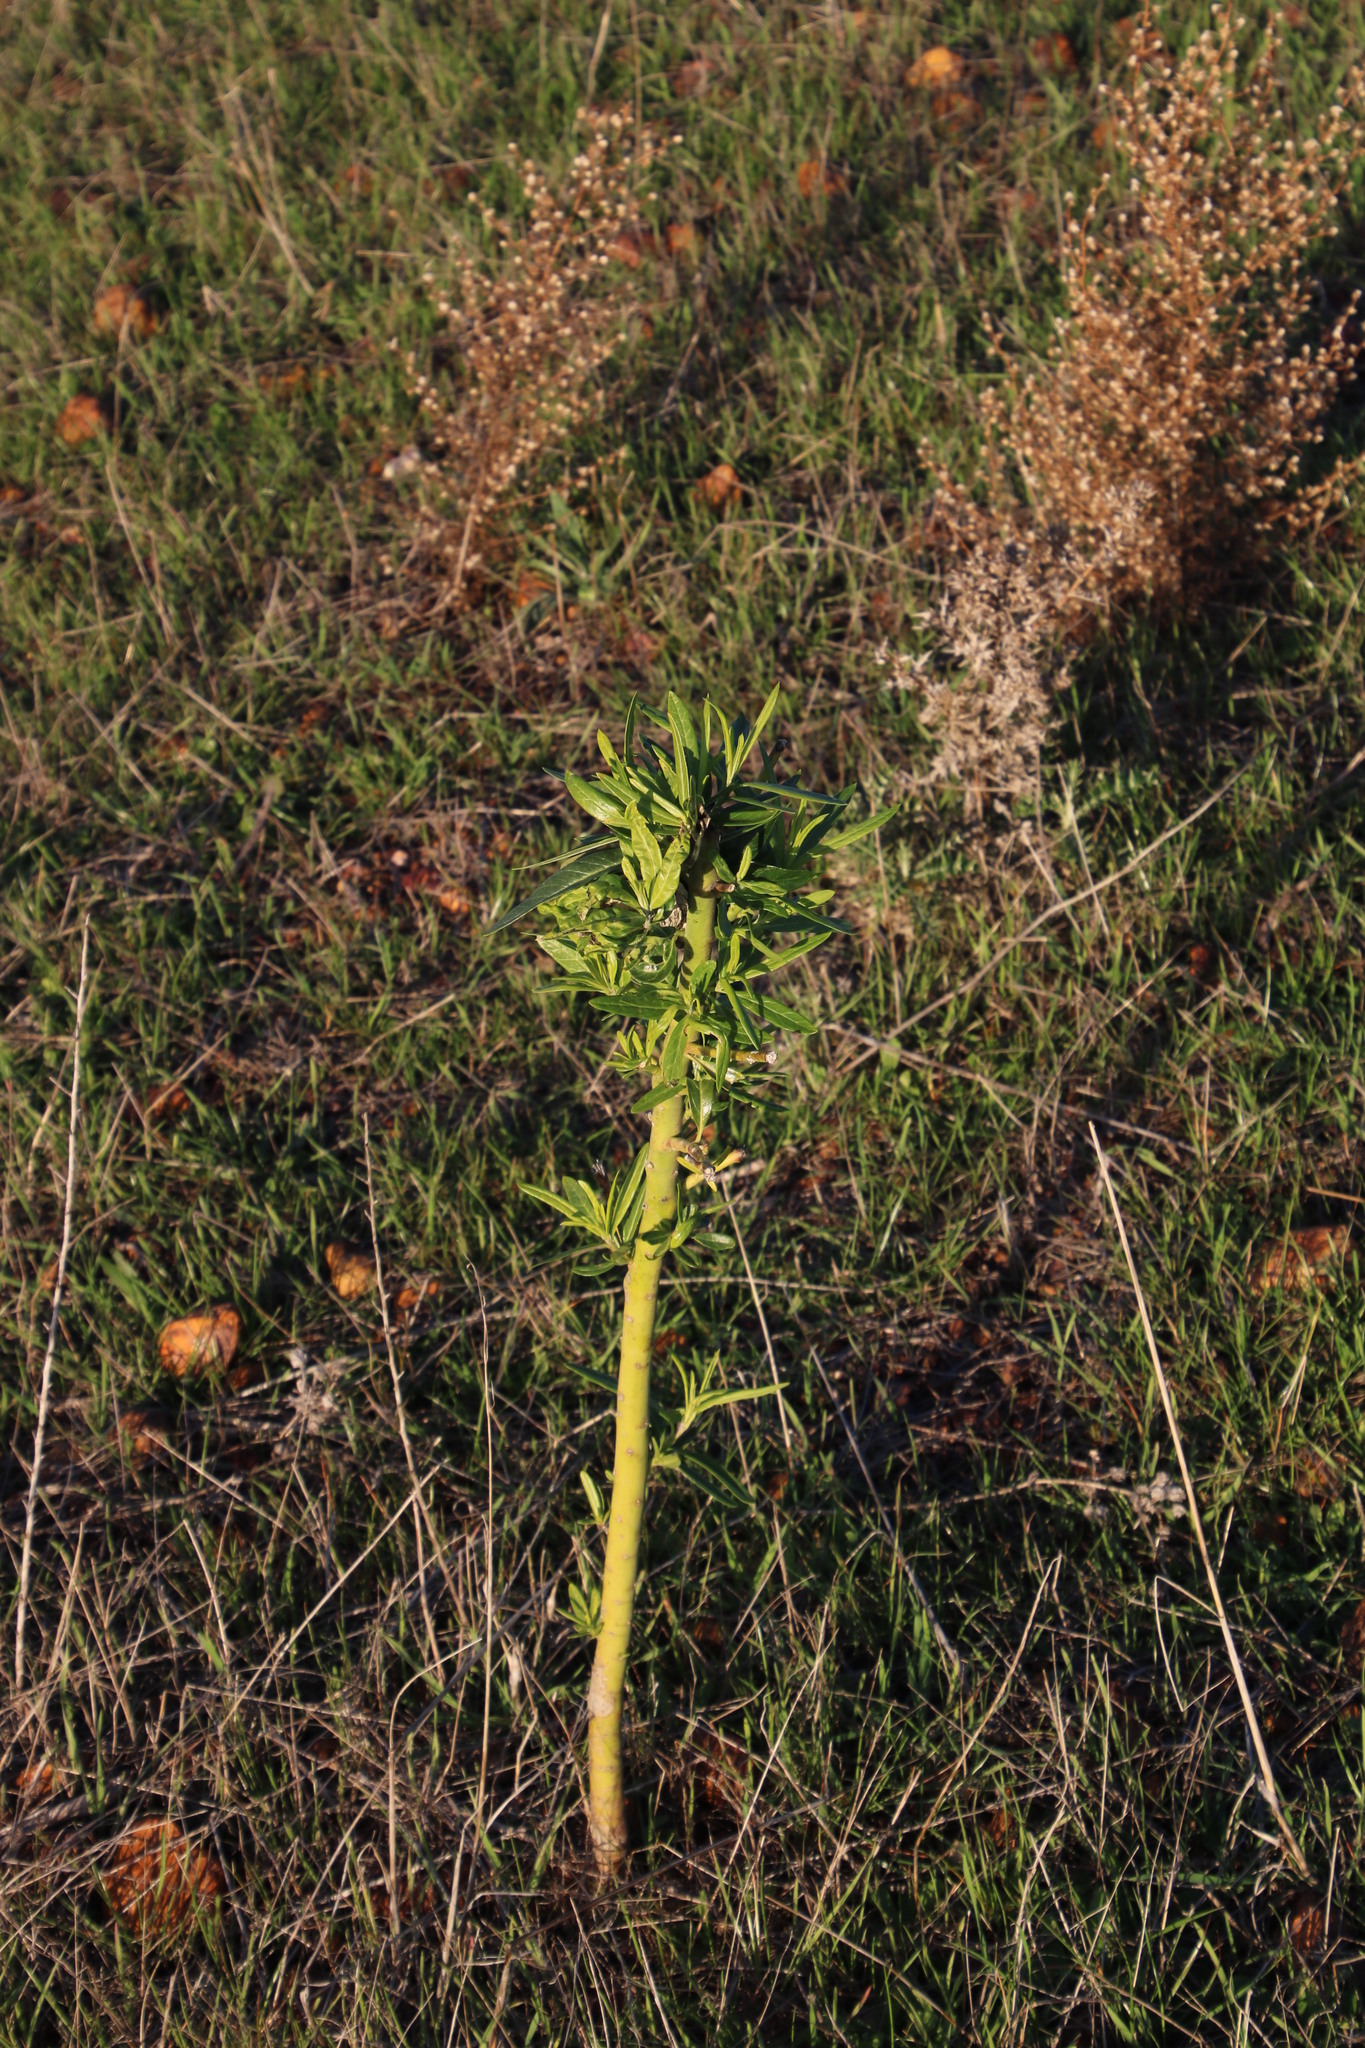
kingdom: Plantae
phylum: Tracheophyta
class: Magnoliopsida
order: Gentianales
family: Apocynaceae
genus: Gomphocarpus
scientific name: Gomphocarpus fruticosus
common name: Milkweed
